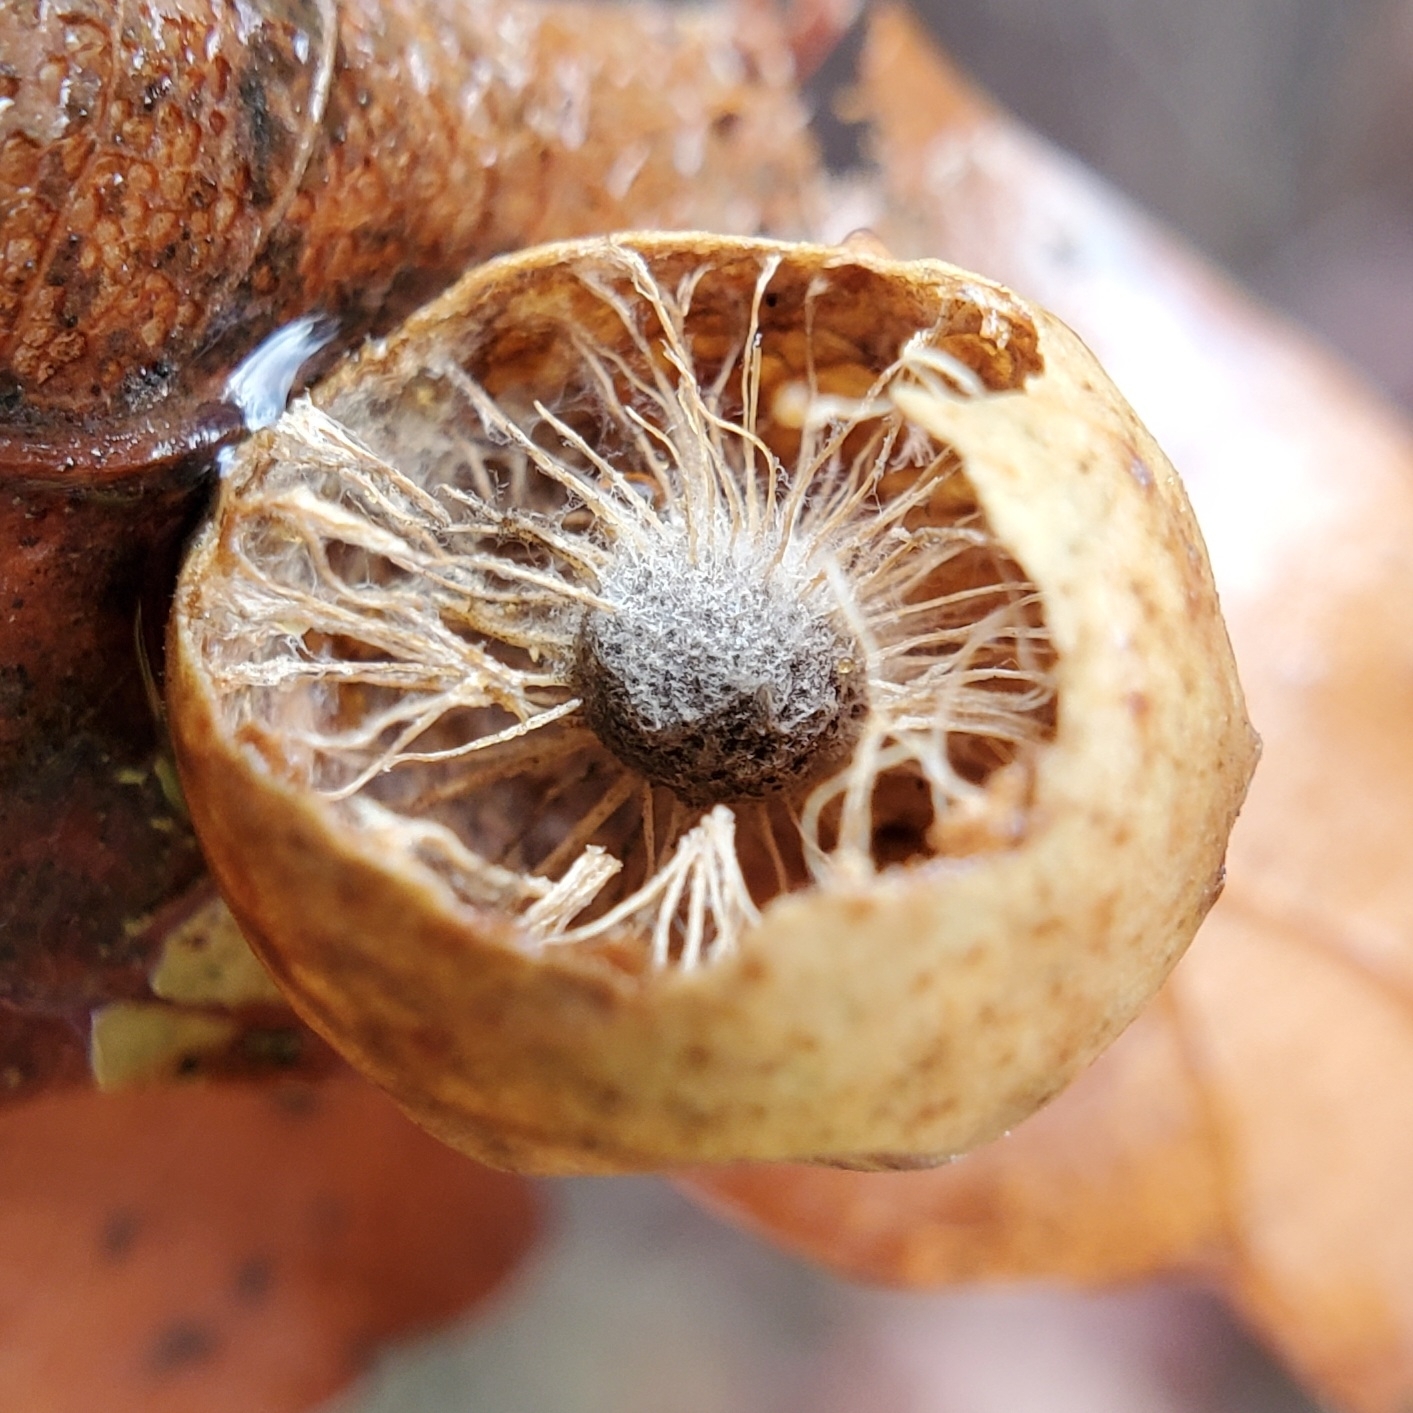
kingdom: Animalia
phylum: Arthropoda
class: Insecta
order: Hymenoptera
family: Cynipidae
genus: Amphibolips
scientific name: Amphibolips
